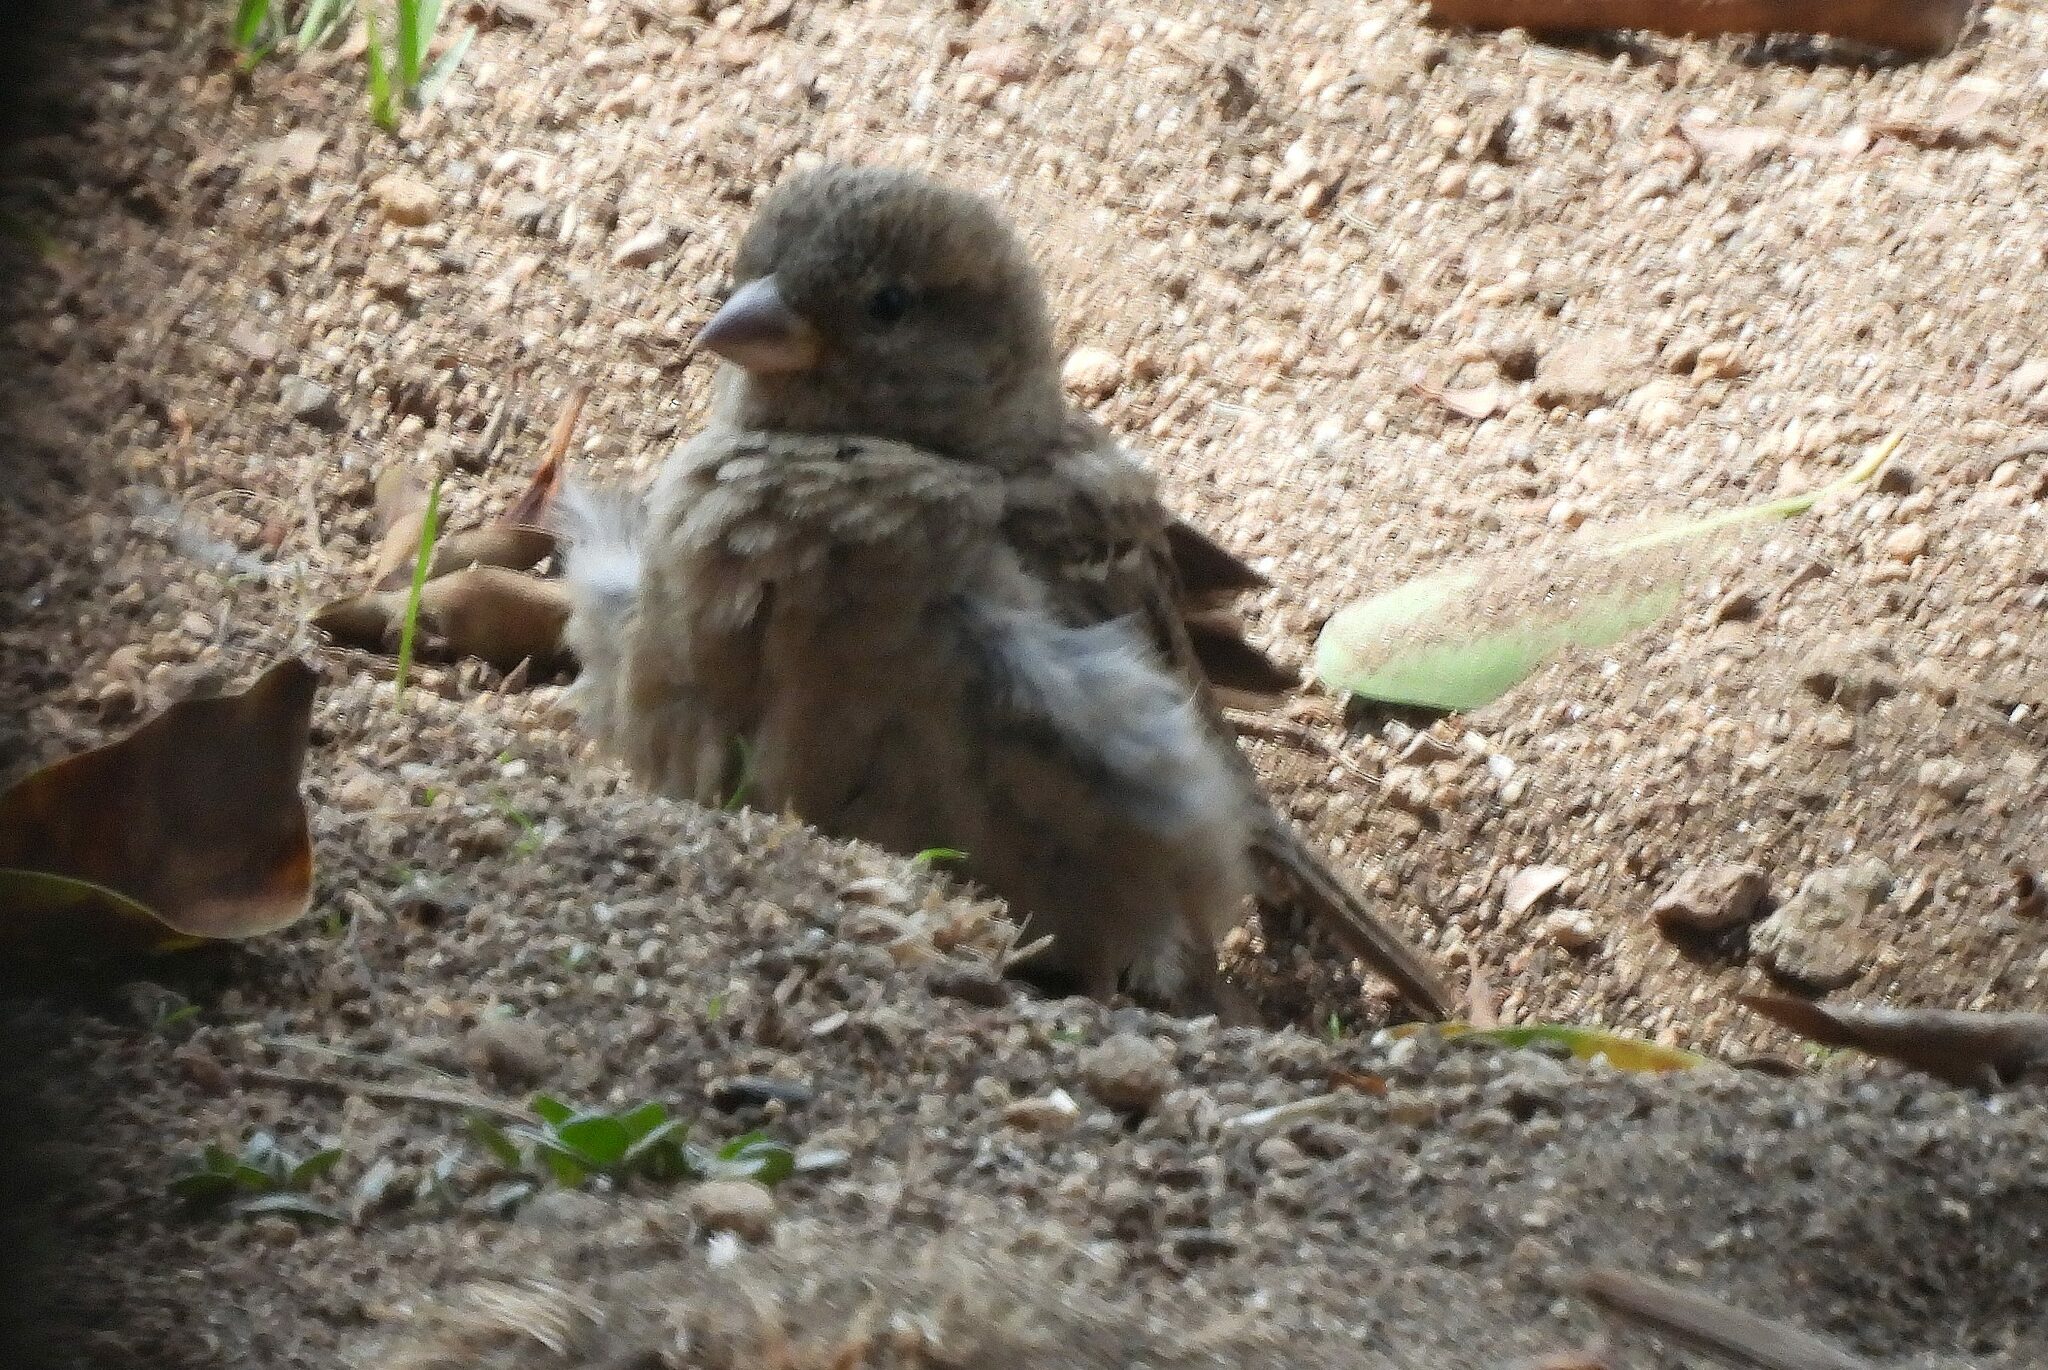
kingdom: Animalia
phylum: Chordata
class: Aves
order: Passeriformes
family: Passeridae
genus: Passer
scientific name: Passer domesticus
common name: House sparrow
